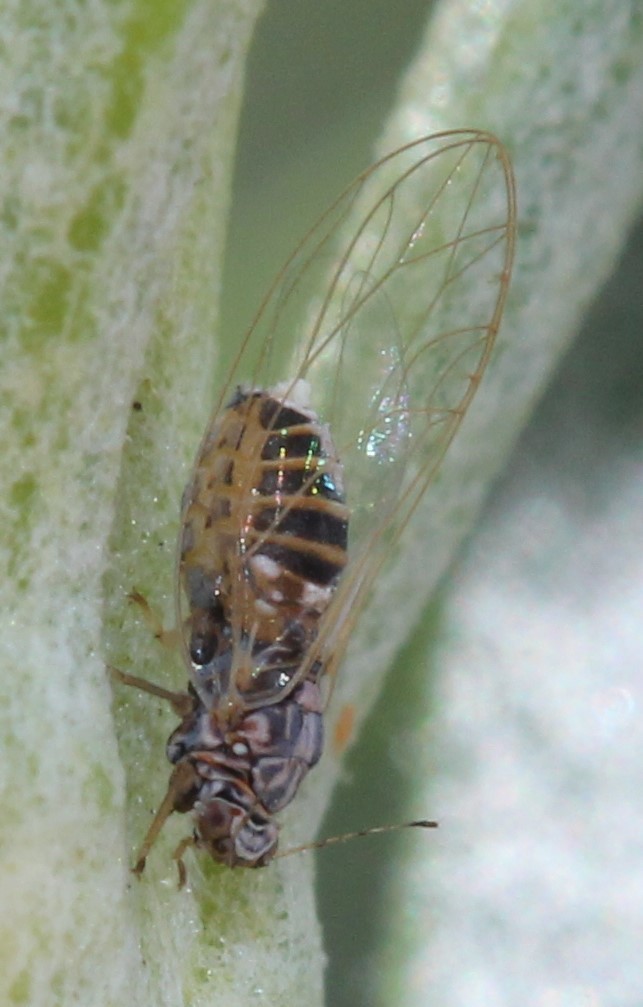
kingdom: Animalia
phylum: Arthropoda
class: Insecta
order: Hemiptera
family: Triozidae
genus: Bactericera
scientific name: Bactericera cockerelli
